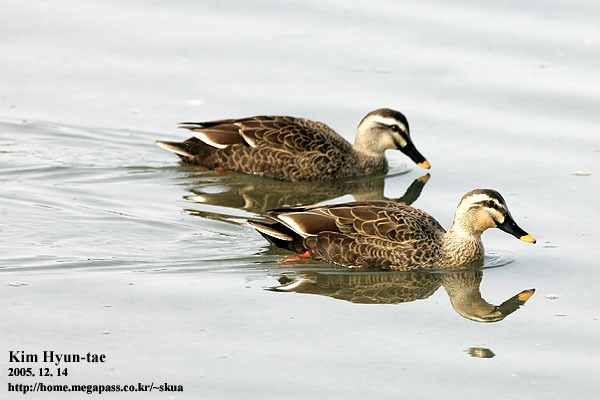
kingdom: Animalia
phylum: Chordata
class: Aves
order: Anseriformes
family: Anatidae
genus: Anas
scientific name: Anas zonorhyncha
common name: Eastern spot-billed duck
